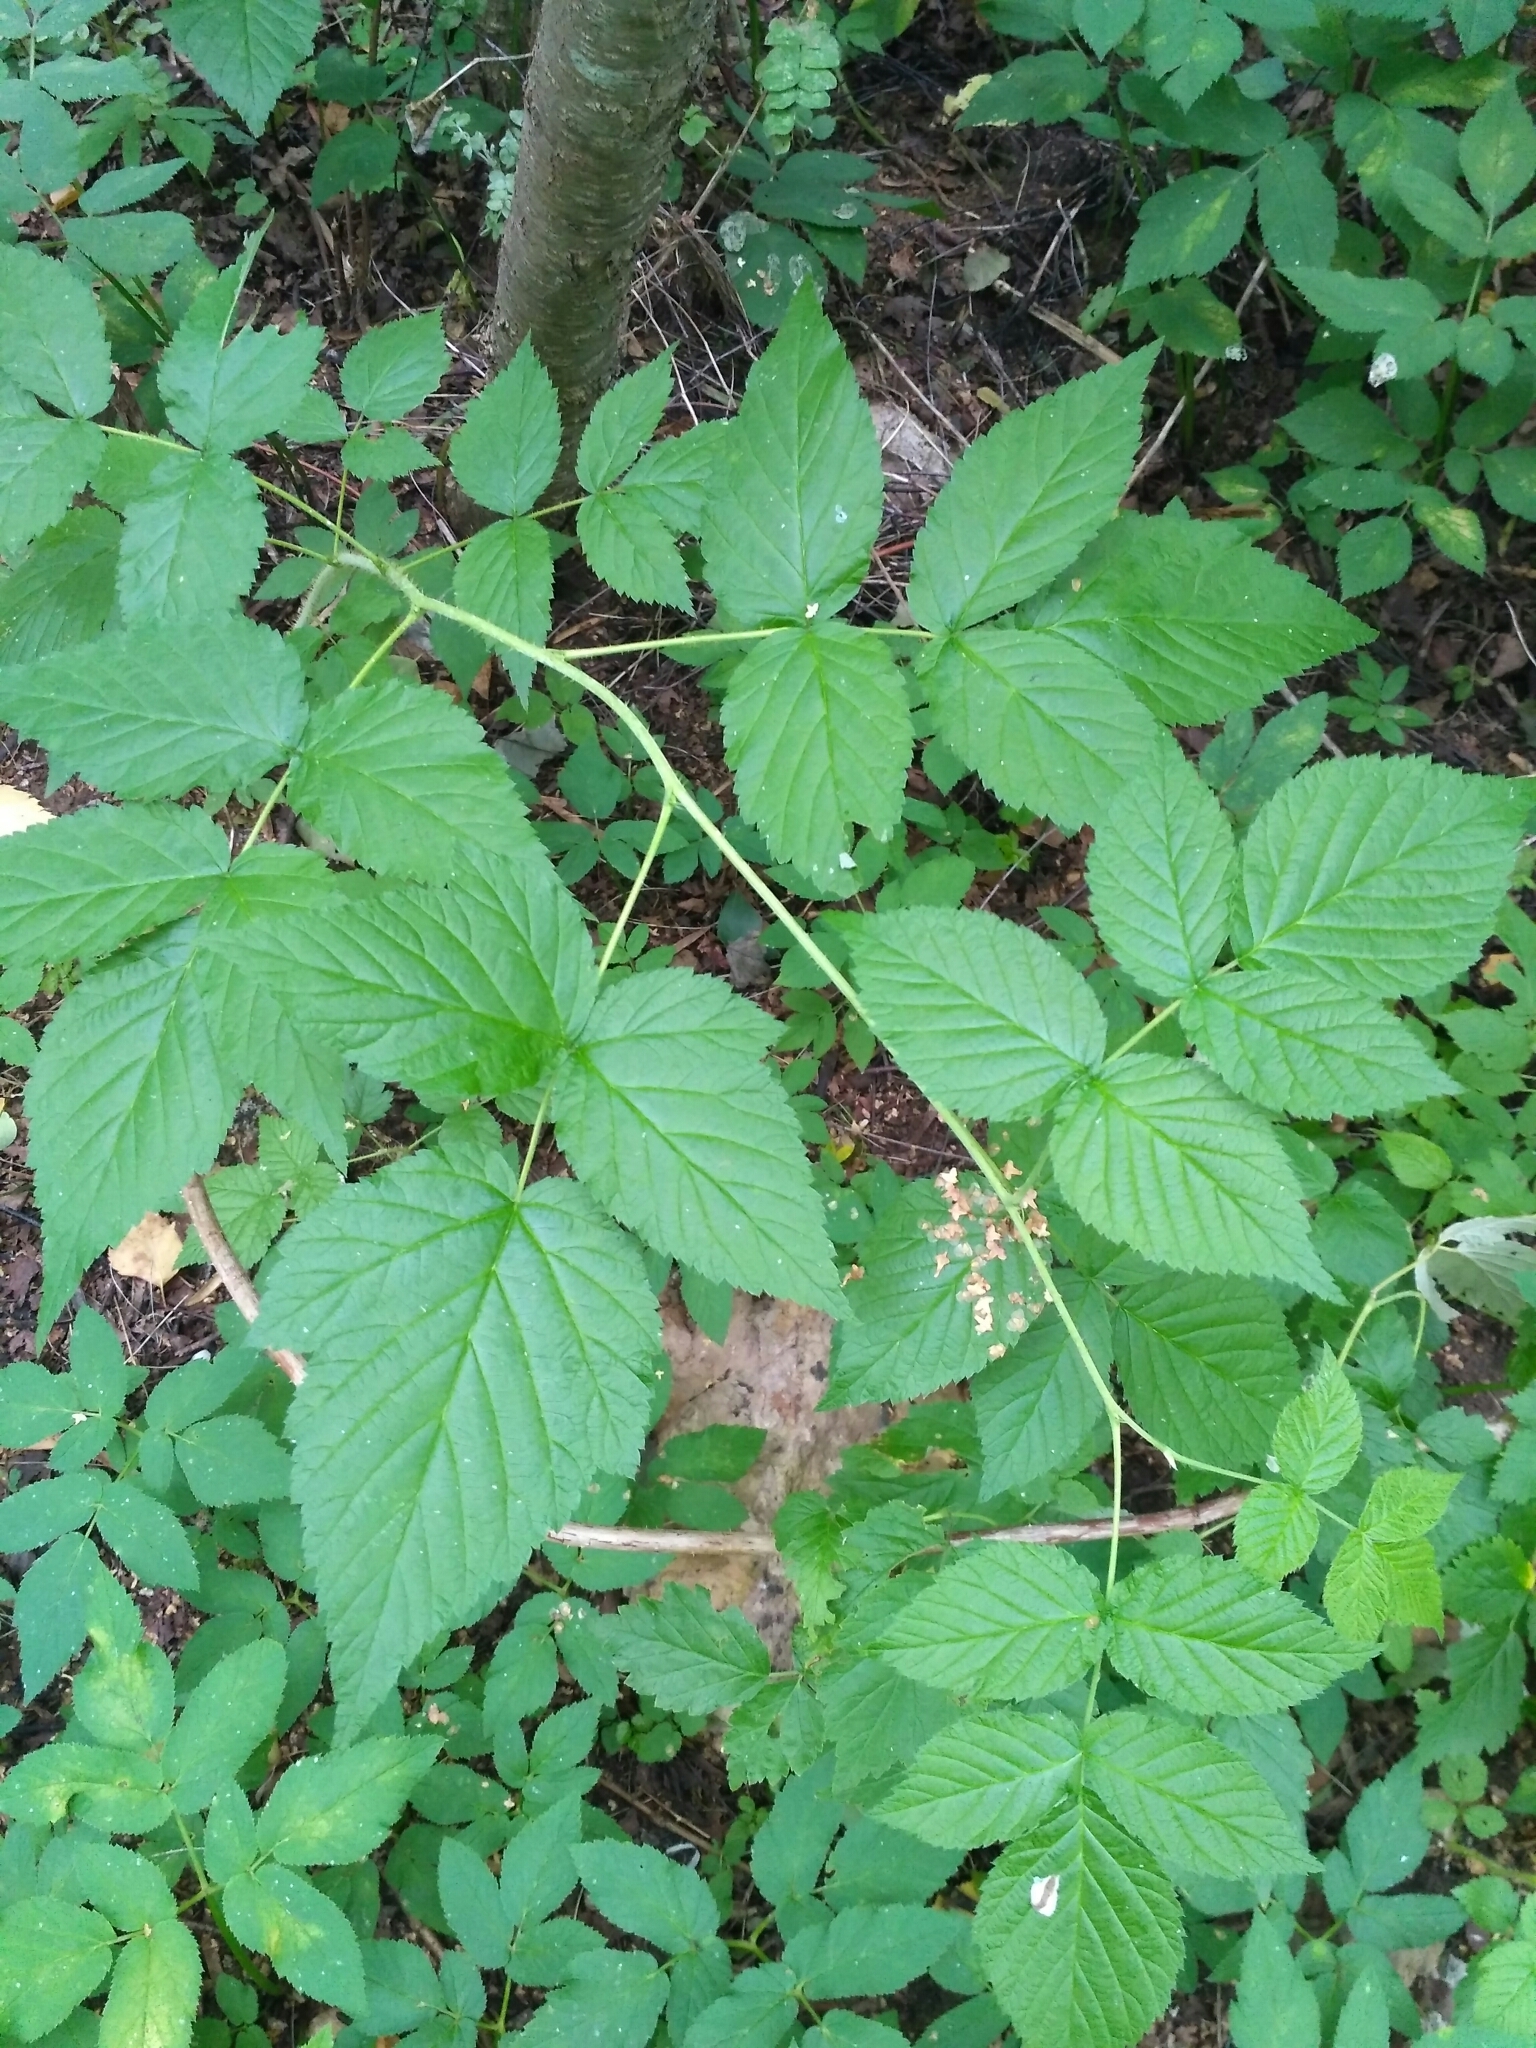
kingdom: Plantae
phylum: Tracheophyta
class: Magnoliopsida
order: Rosales
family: Rosaceae
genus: Rubus
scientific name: Rubus idaeus
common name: Raspberry
